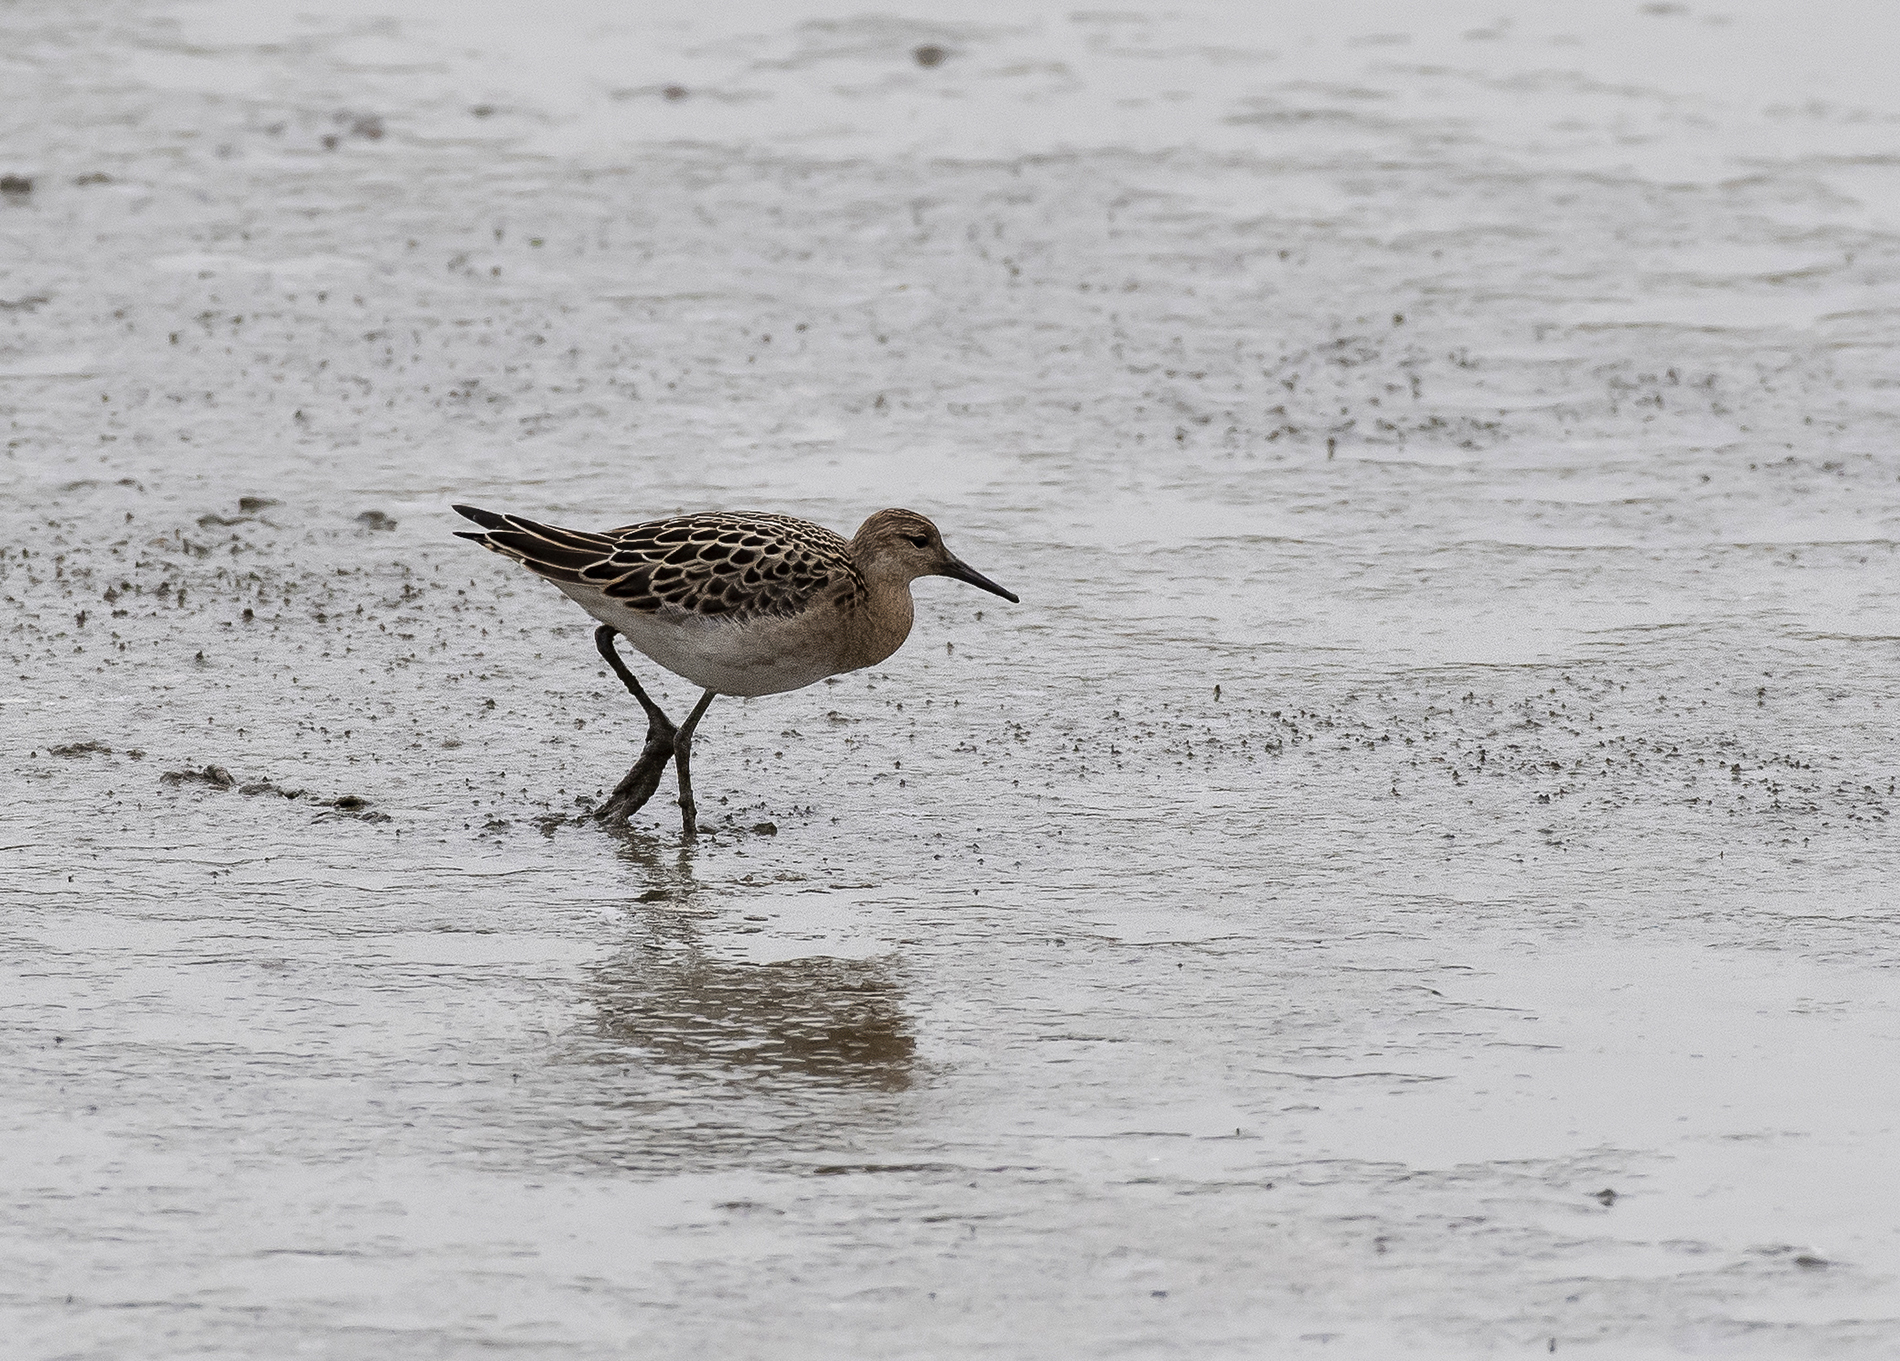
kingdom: Animalia
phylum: Chordata
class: Aves
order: Charadriiformes
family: Scolopacidae
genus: Calidris
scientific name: Calidris pugnax
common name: Ruff
